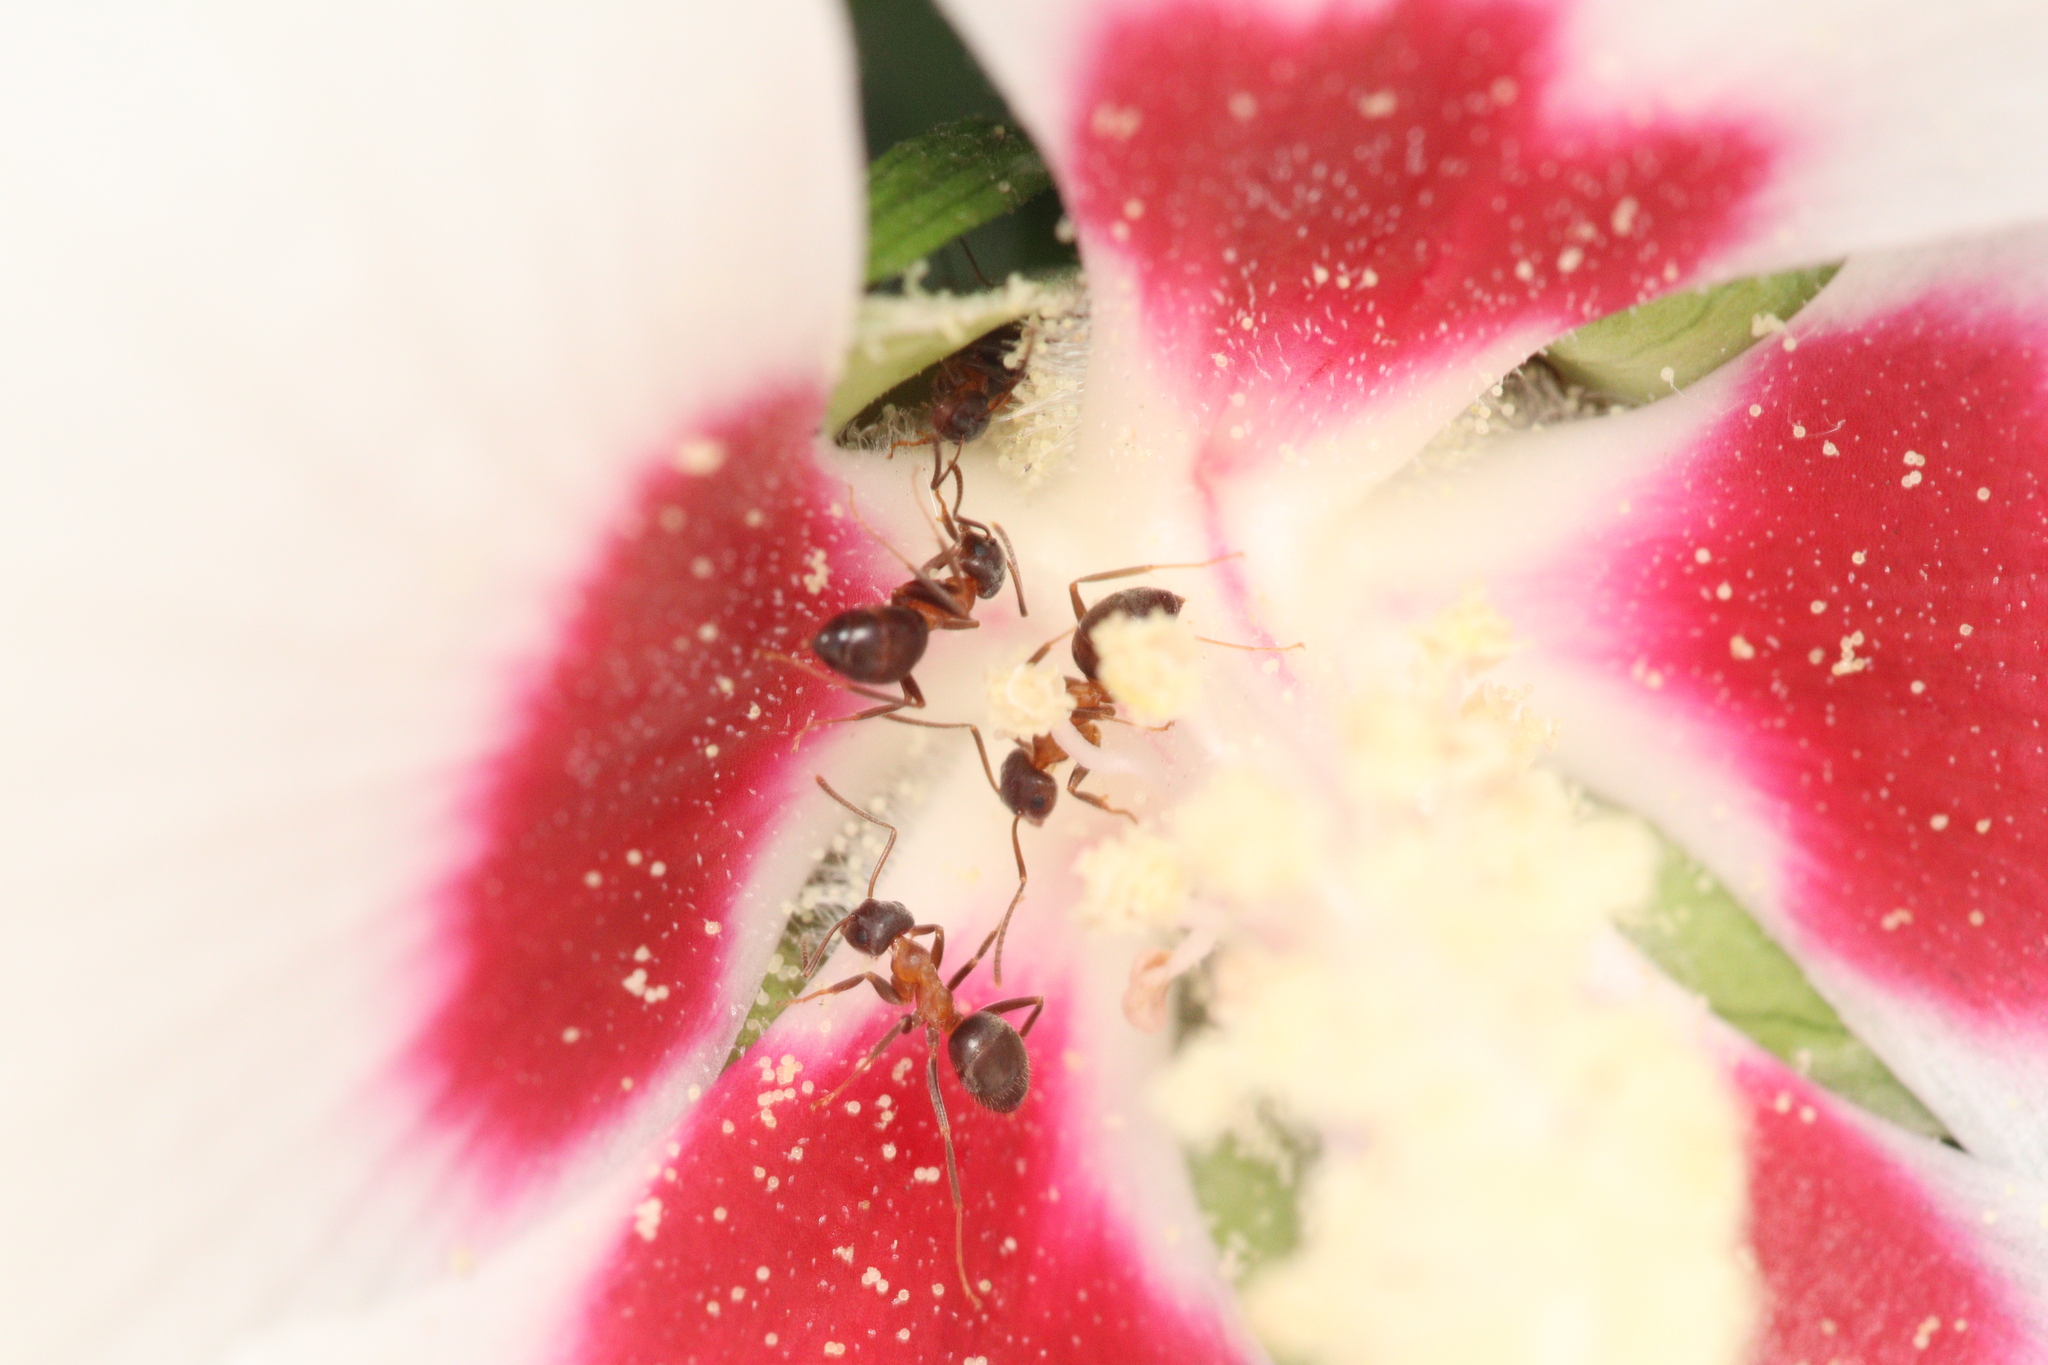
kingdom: Animalia
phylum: Arthropoda
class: Insecta
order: Hymenoptera
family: Formicidae
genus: Lasius
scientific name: Lasius emarginatus
